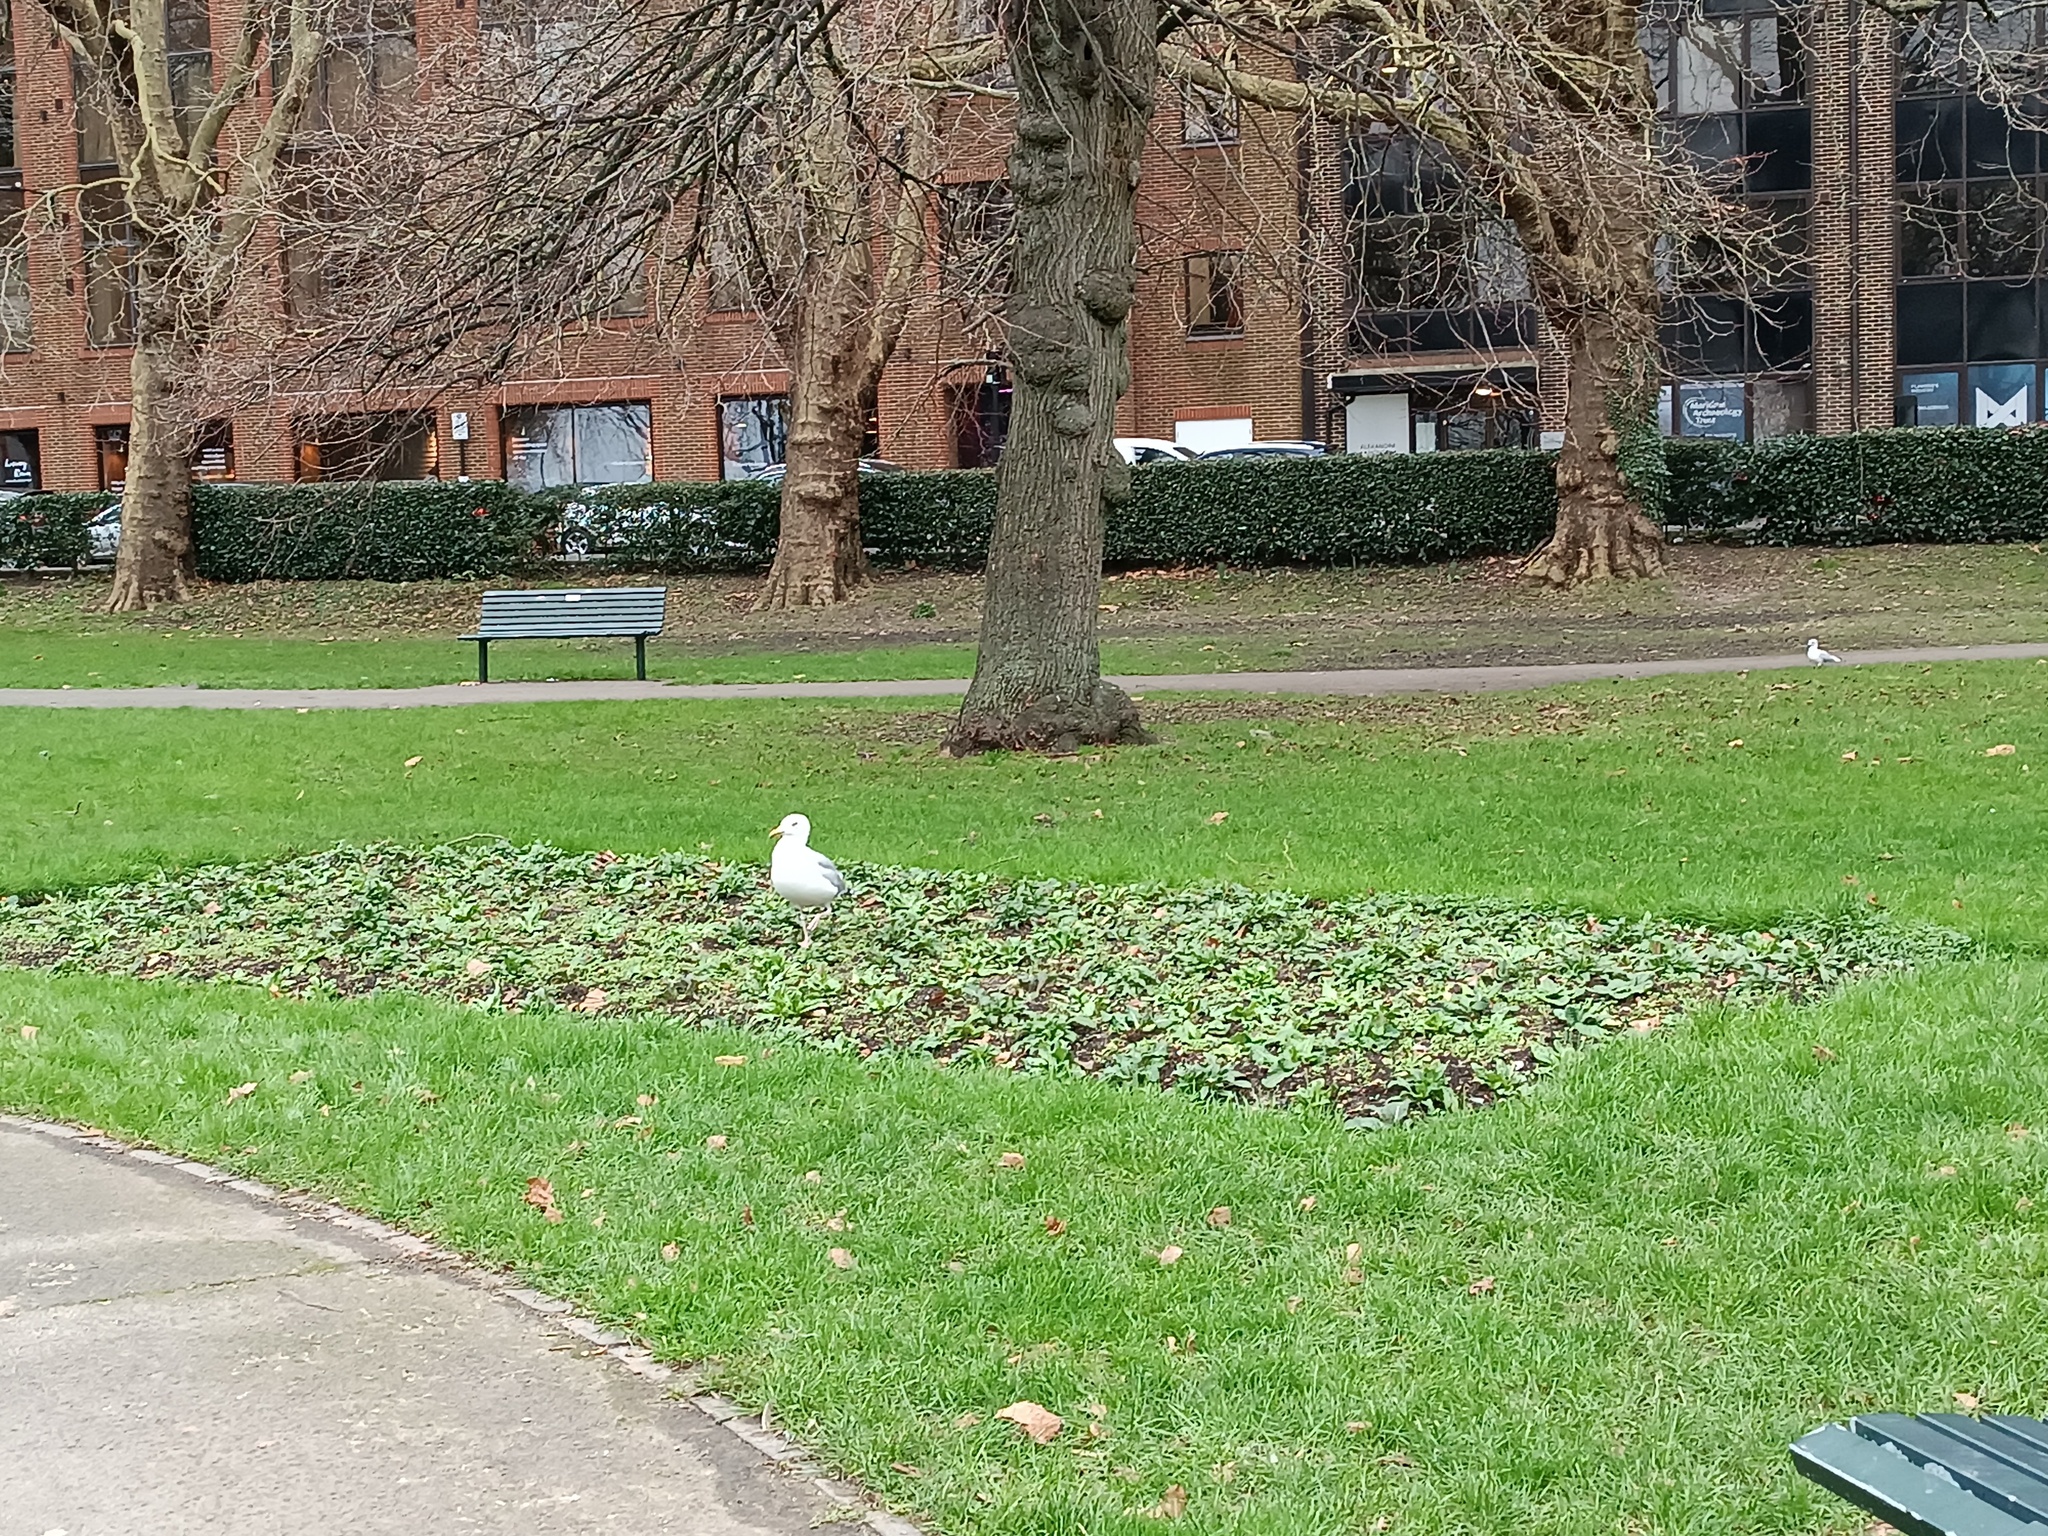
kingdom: Animalia
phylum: Chordata
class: Aves
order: Charadriiformes
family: Laridae
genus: Larus
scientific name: Larus argentatus
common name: Herring gull
